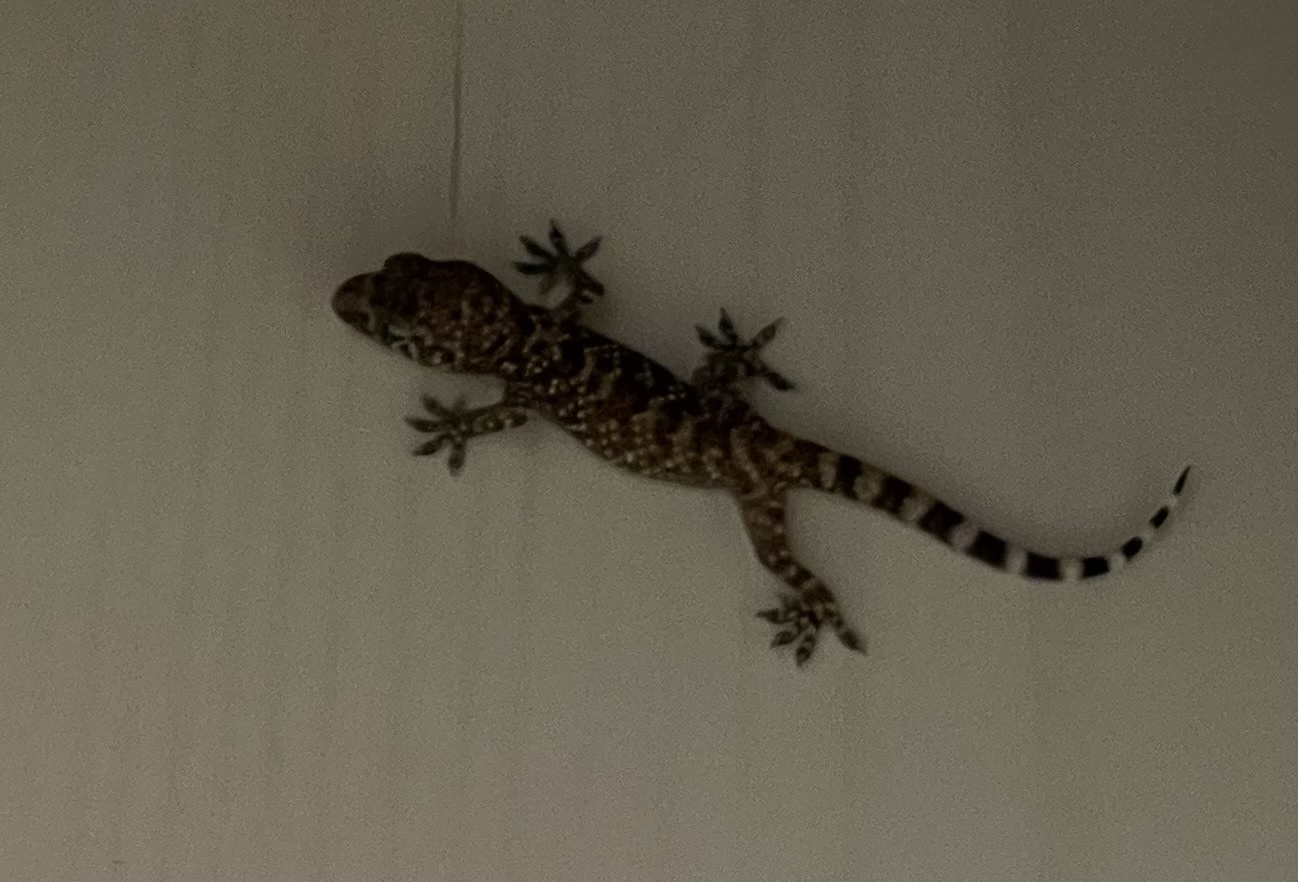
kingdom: Animalia
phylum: Chordata
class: Squamata
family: Gekkonidae
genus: Hemidactylus
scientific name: Hemidactylus turcicus
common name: Turkish gecko
